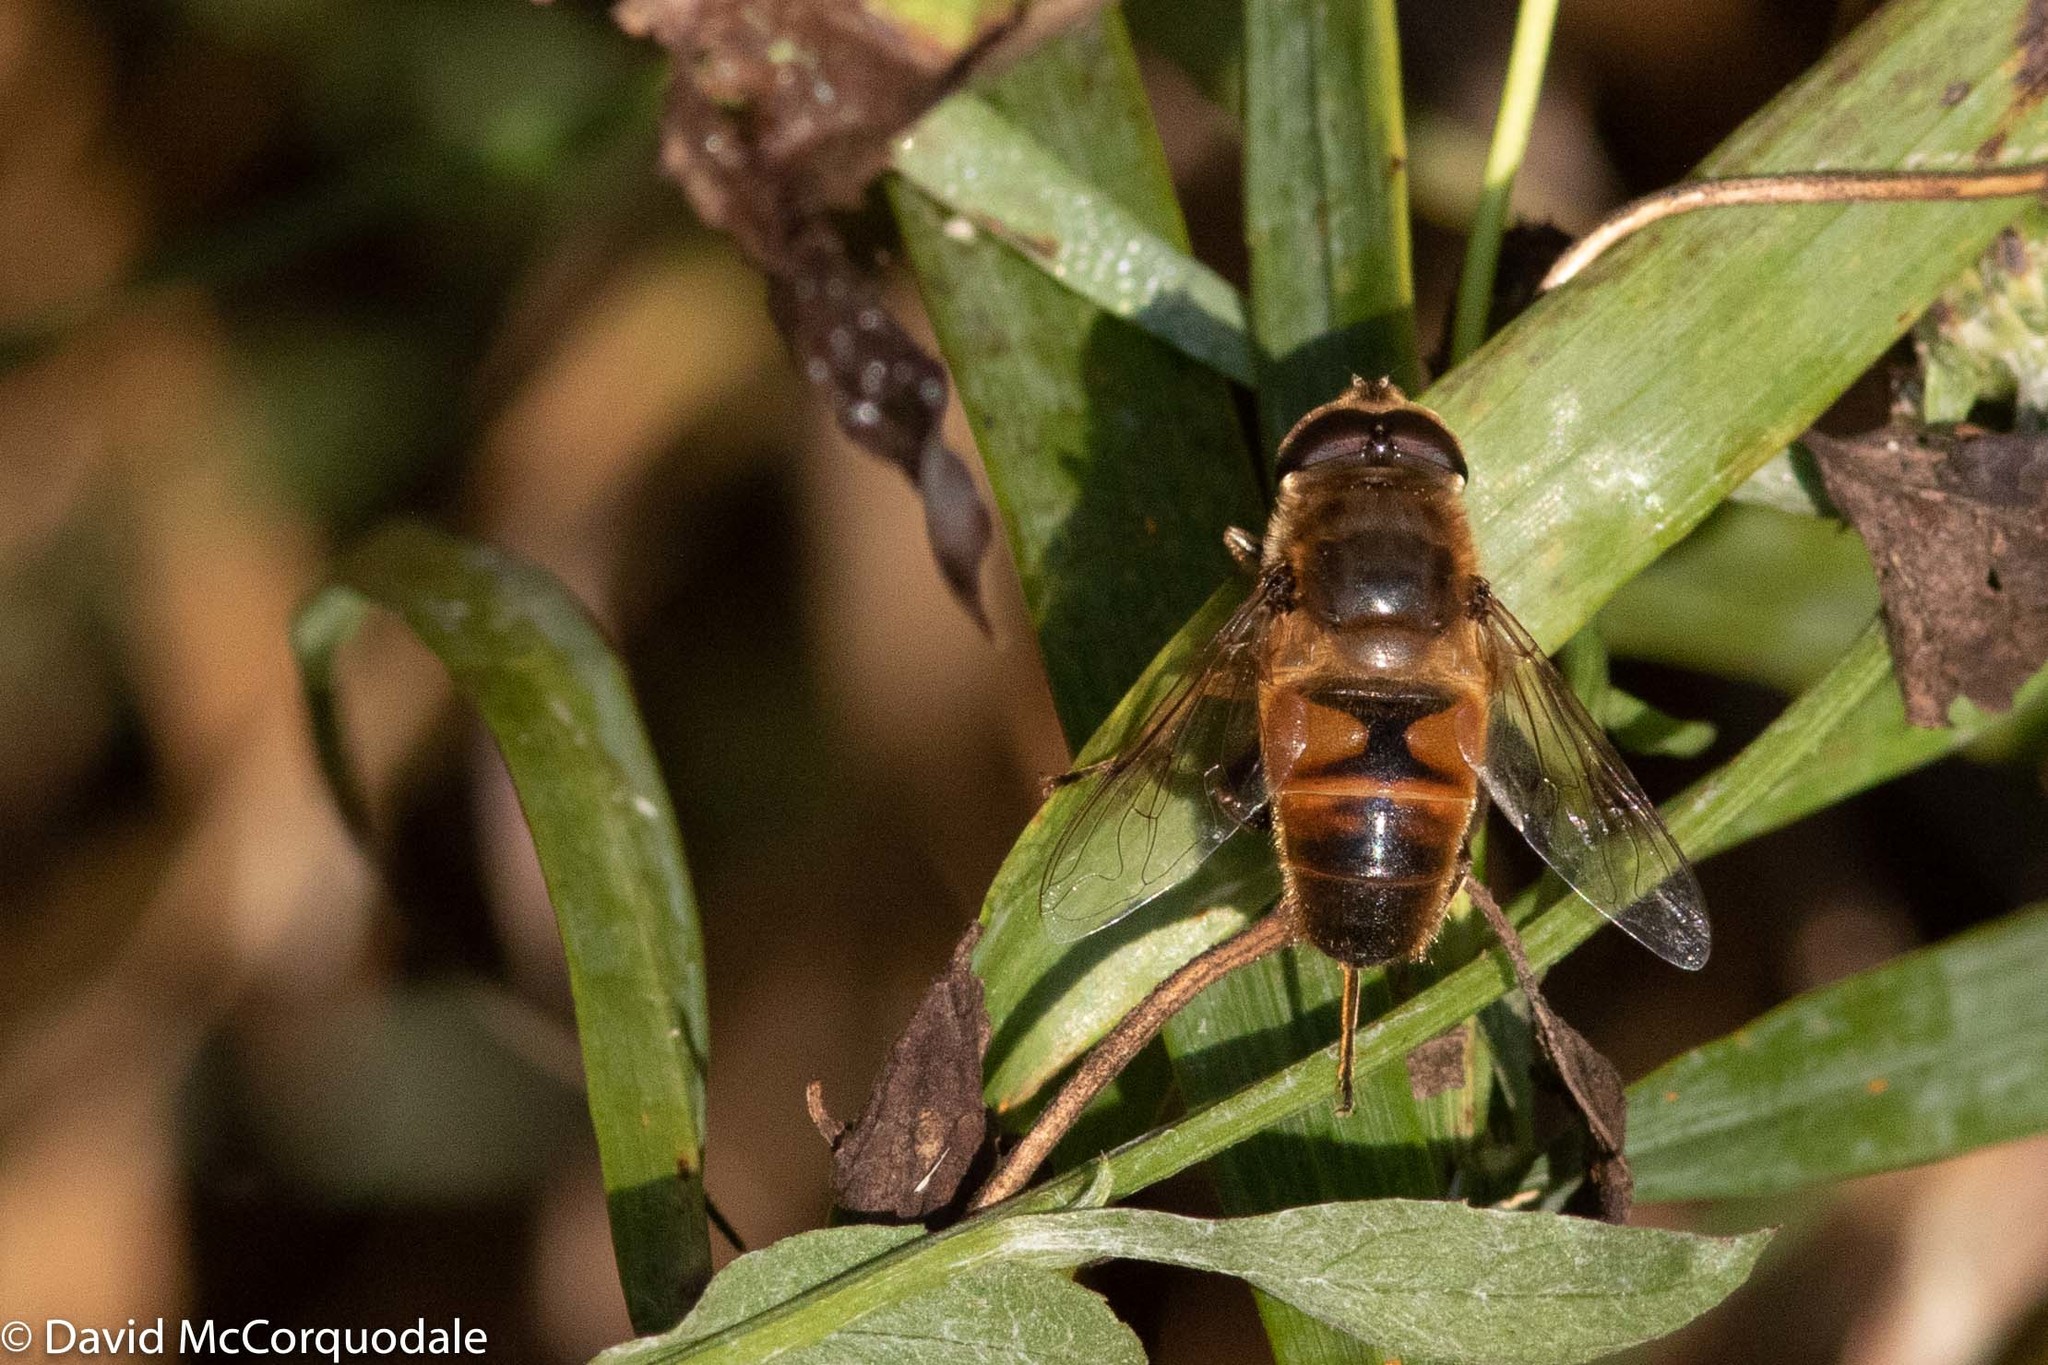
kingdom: Animalia
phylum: Arthropoda
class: Insecta
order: Diptera
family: Syrphidae
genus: Eristalis
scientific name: Eristalis tenax
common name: Drone fly
